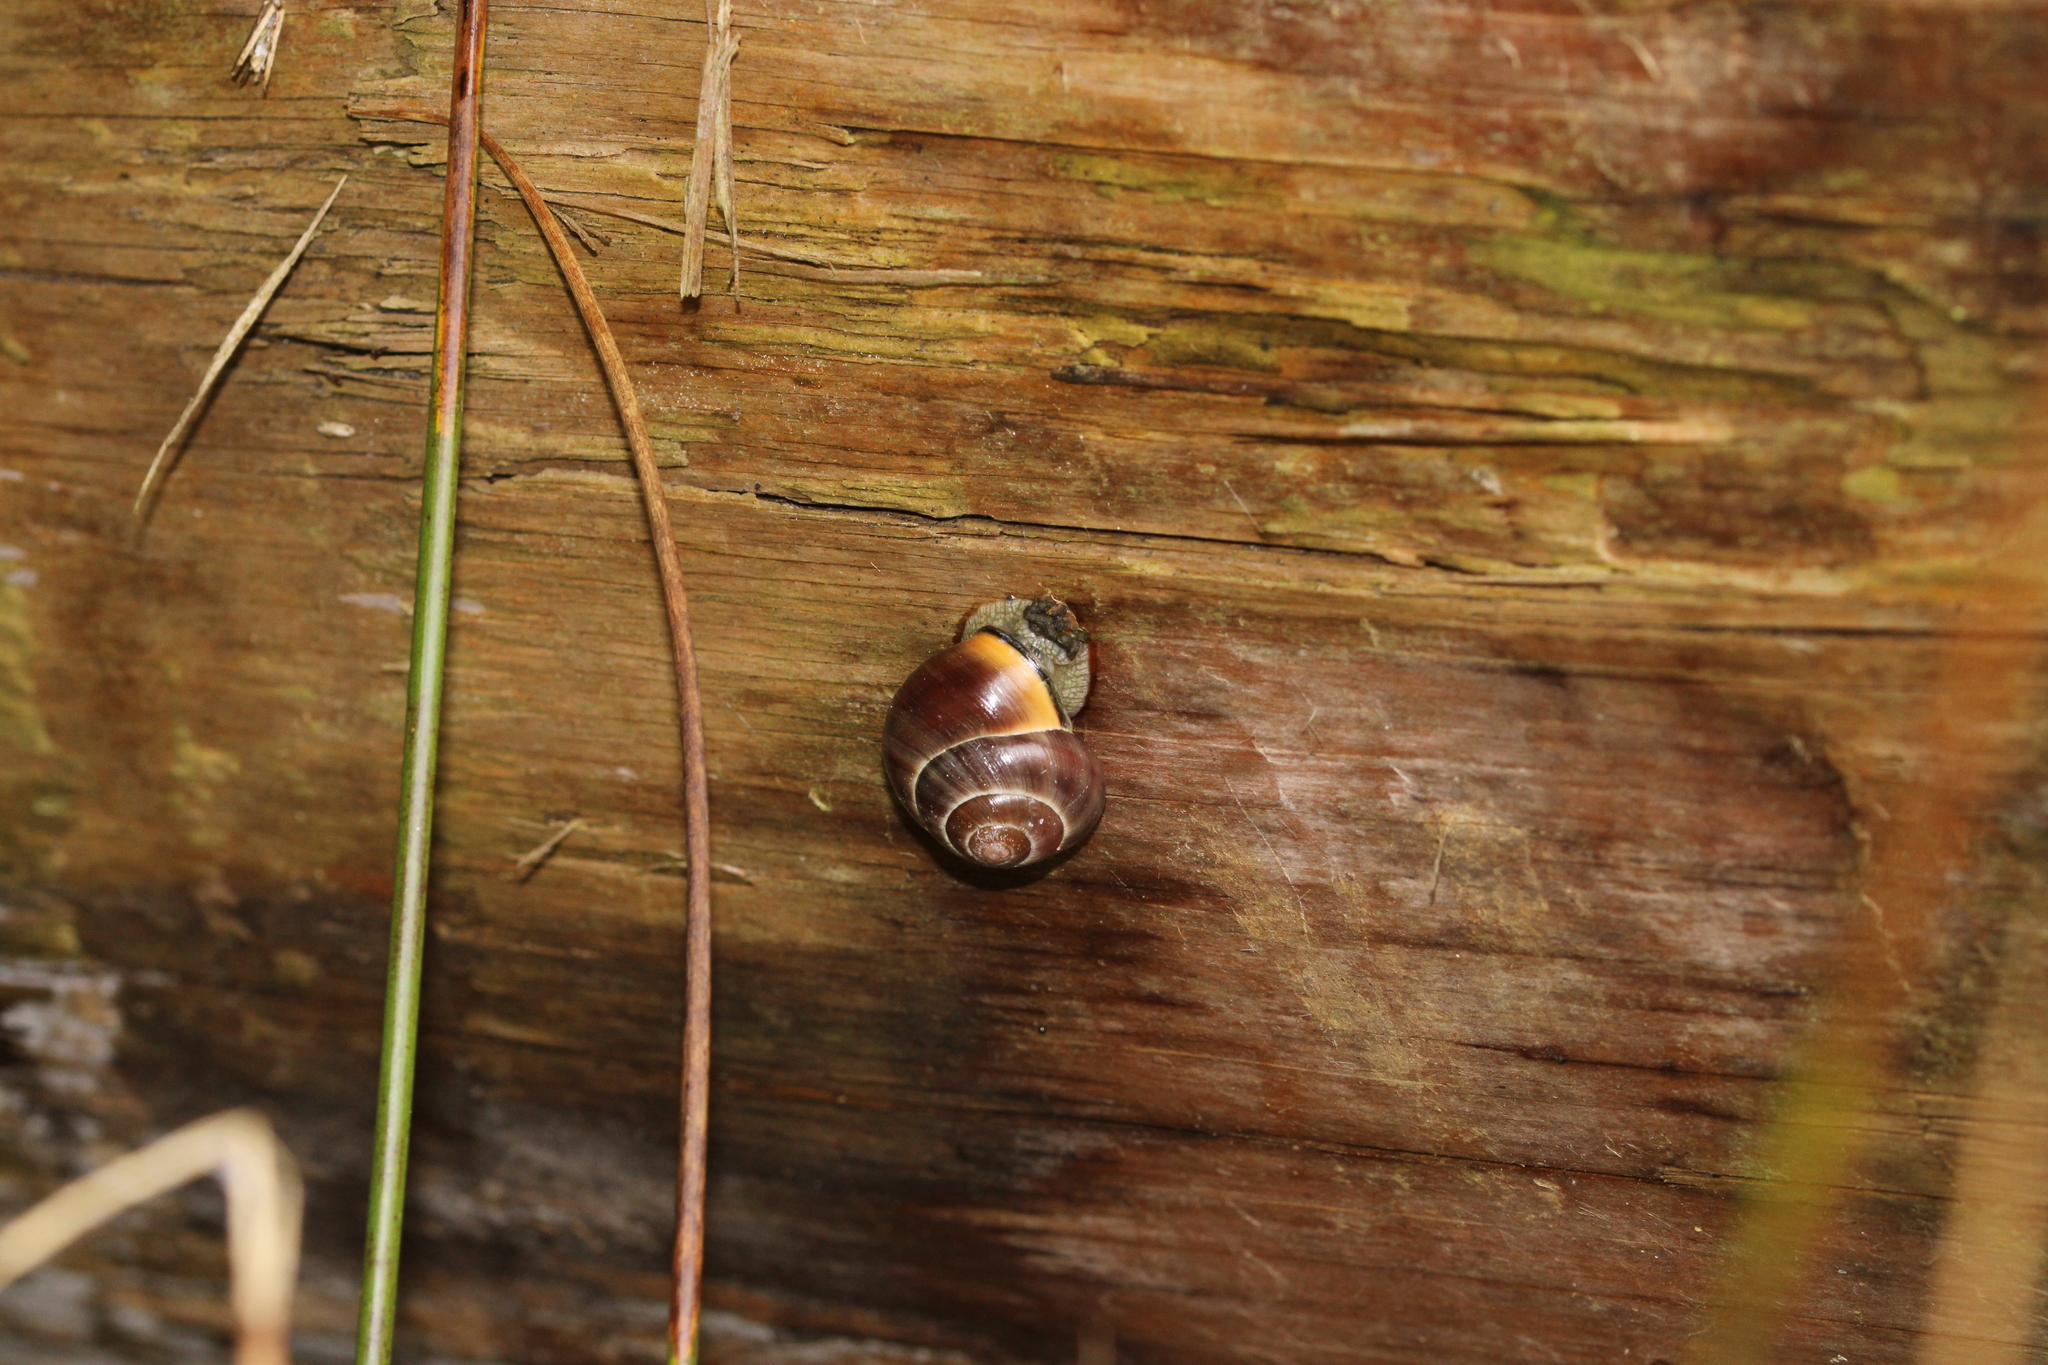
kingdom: Animalia
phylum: Mollusca
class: Gastropoda
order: Stylommatophora
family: Helicidae
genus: Cepaea
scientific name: Cepaea nemoralis
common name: Grovesnail
